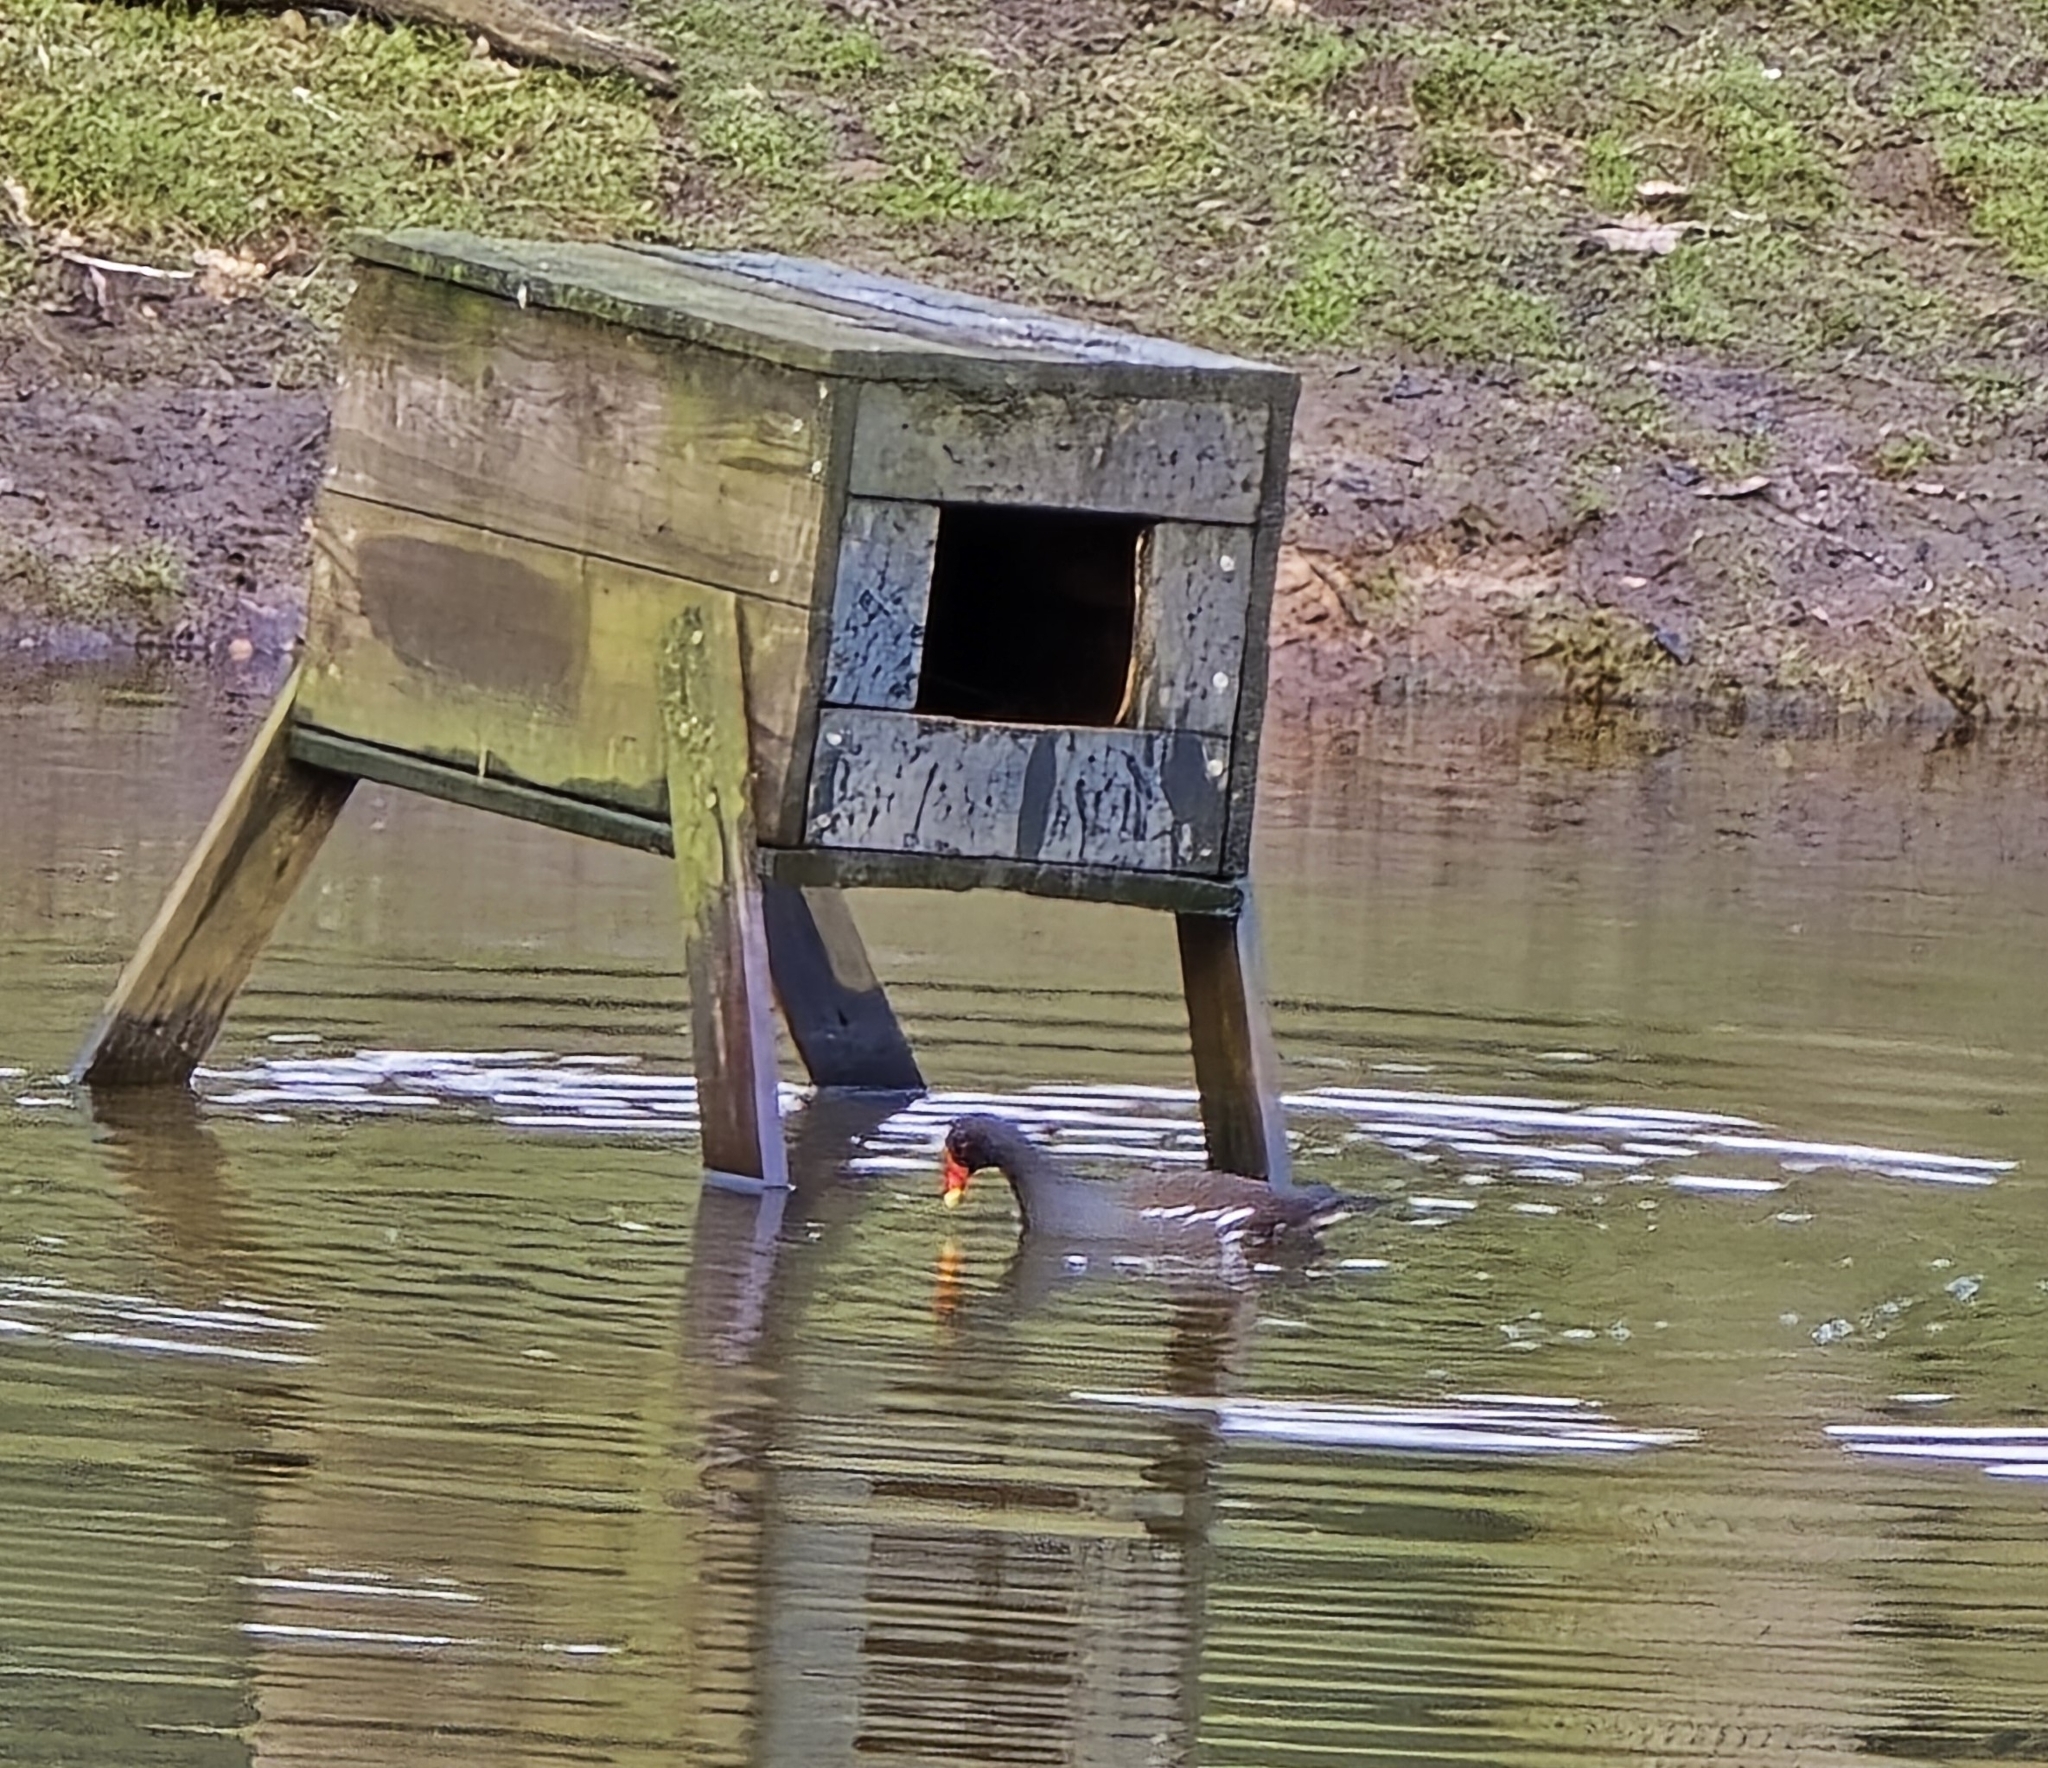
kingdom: Animalia
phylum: Chordata
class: Aves
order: Gruiformes
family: Rallidae
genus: Gallinula
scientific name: Gallinula chloropus
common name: Common moorhen
